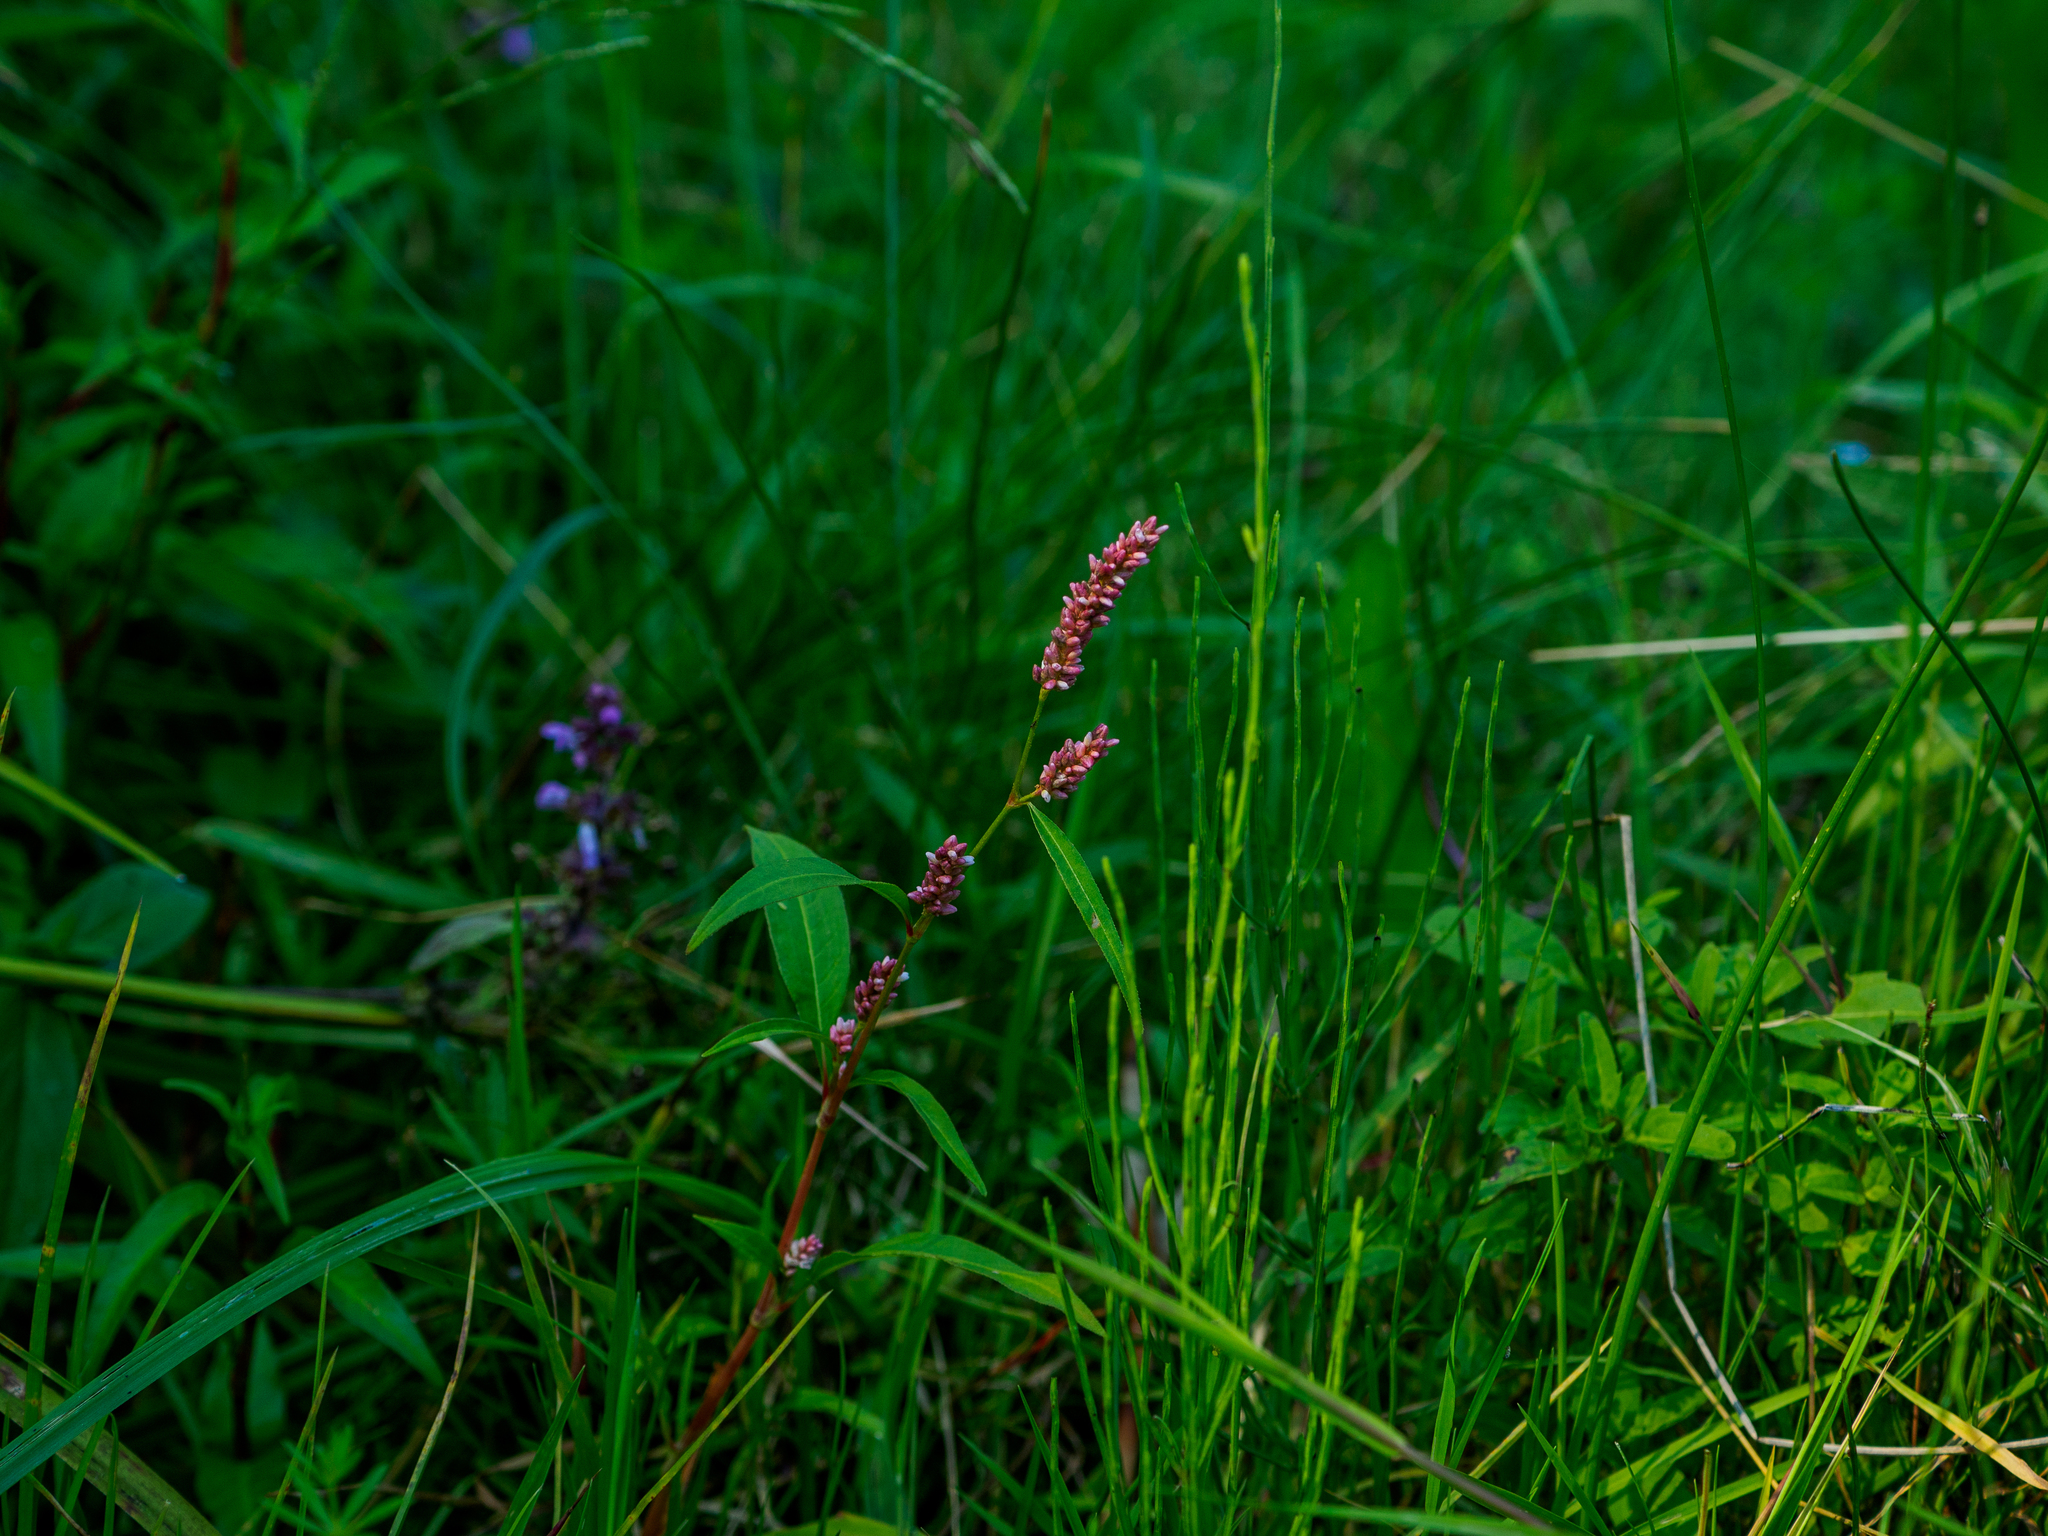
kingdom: Plantae
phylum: Tracheophyta
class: Magnoliopsida
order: Caryophyllales
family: Polygonaceae
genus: Persicaria
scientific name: Persicaria lapathifolia
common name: Curlytop knotweed
